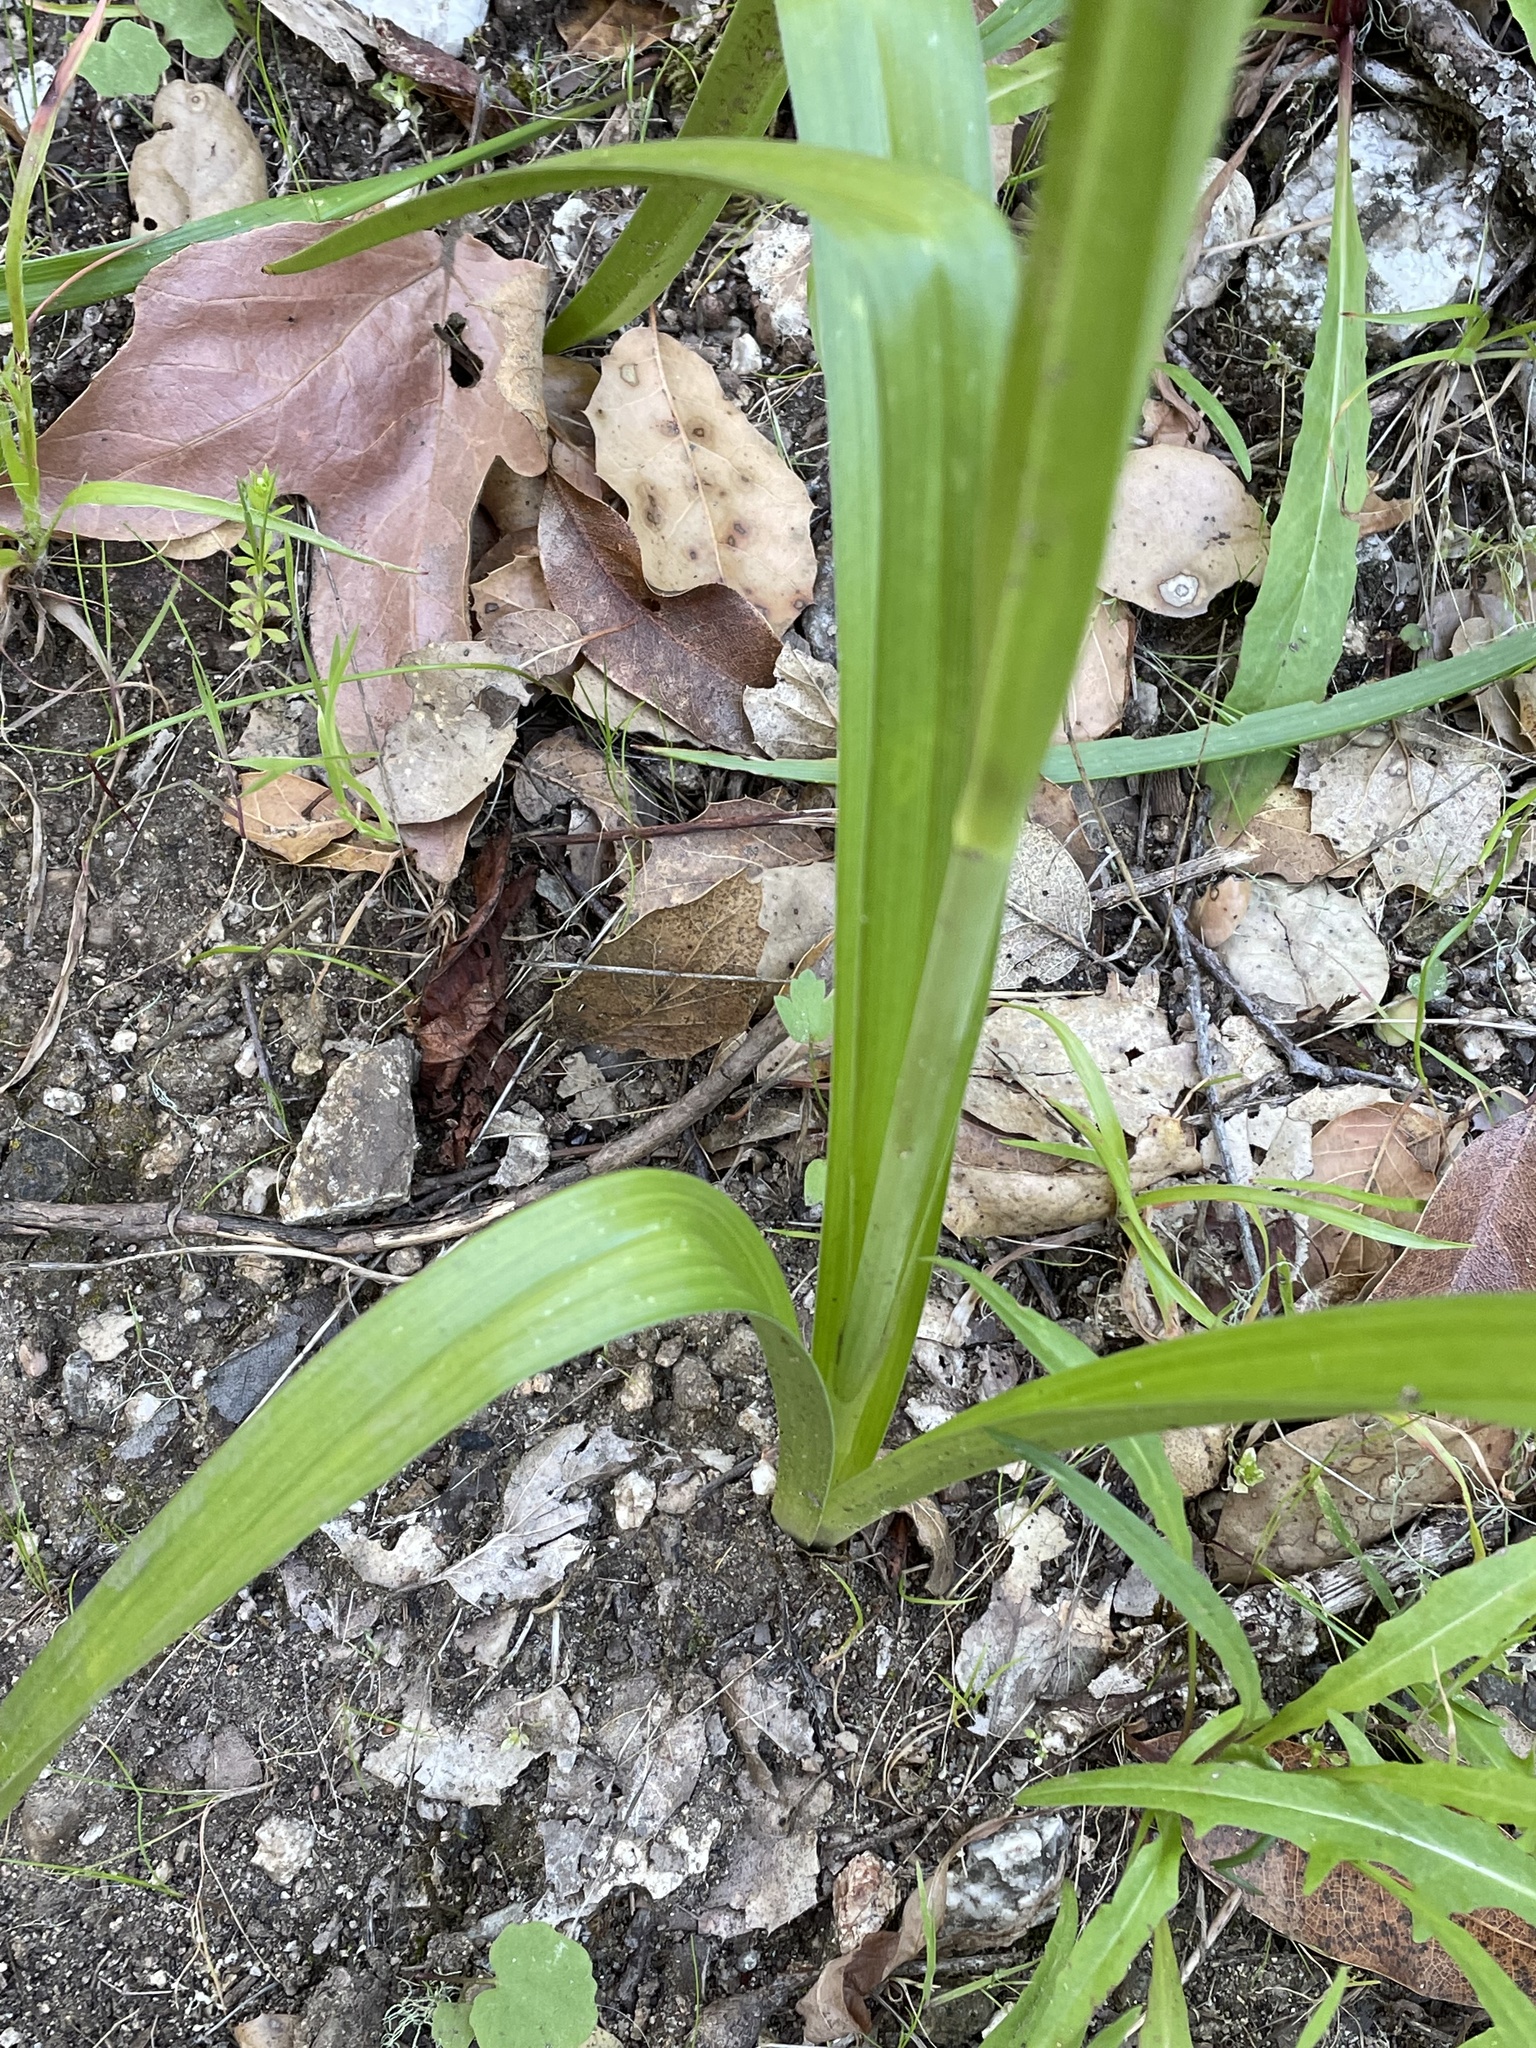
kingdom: Plantae
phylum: Tracheophyta
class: Liliopsida
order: Liliales
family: Melanthiaceae
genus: Toxicoscordion
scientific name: Toxicoscordion fremontii
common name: Fremont's death camas
